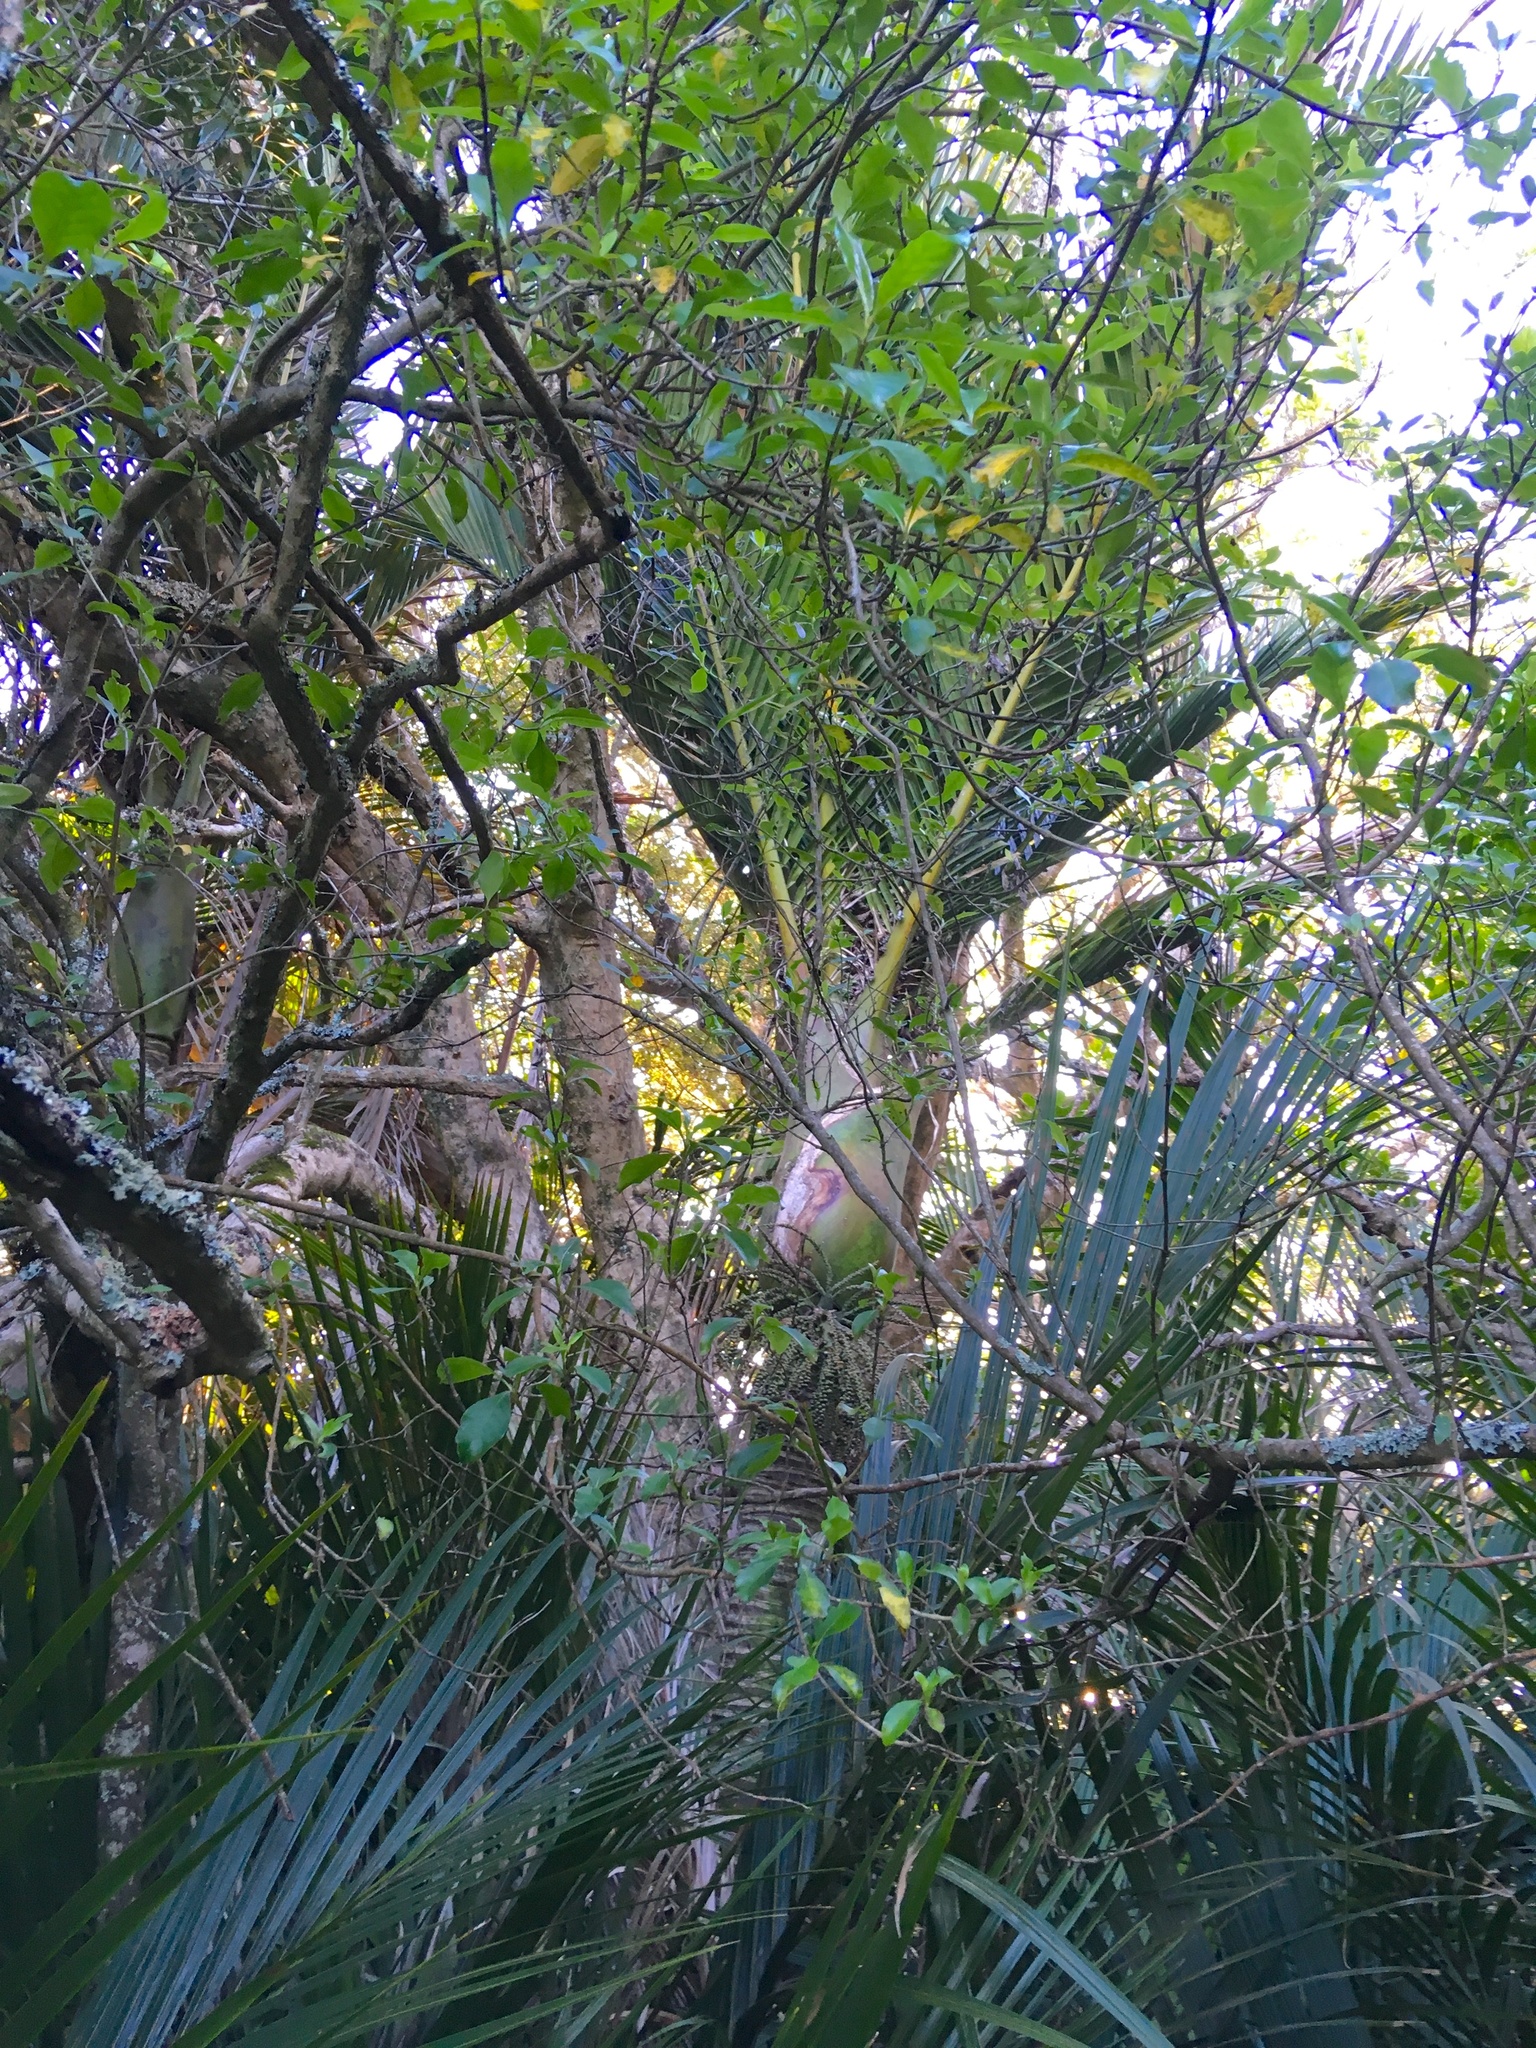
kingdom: Plantae
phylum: Tracheophyta
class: Liliopsida
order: Arecales
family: Arecaceae
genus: Rhopalostylis
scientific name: Rhopalostylis sapida
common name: Feather-duster palm
